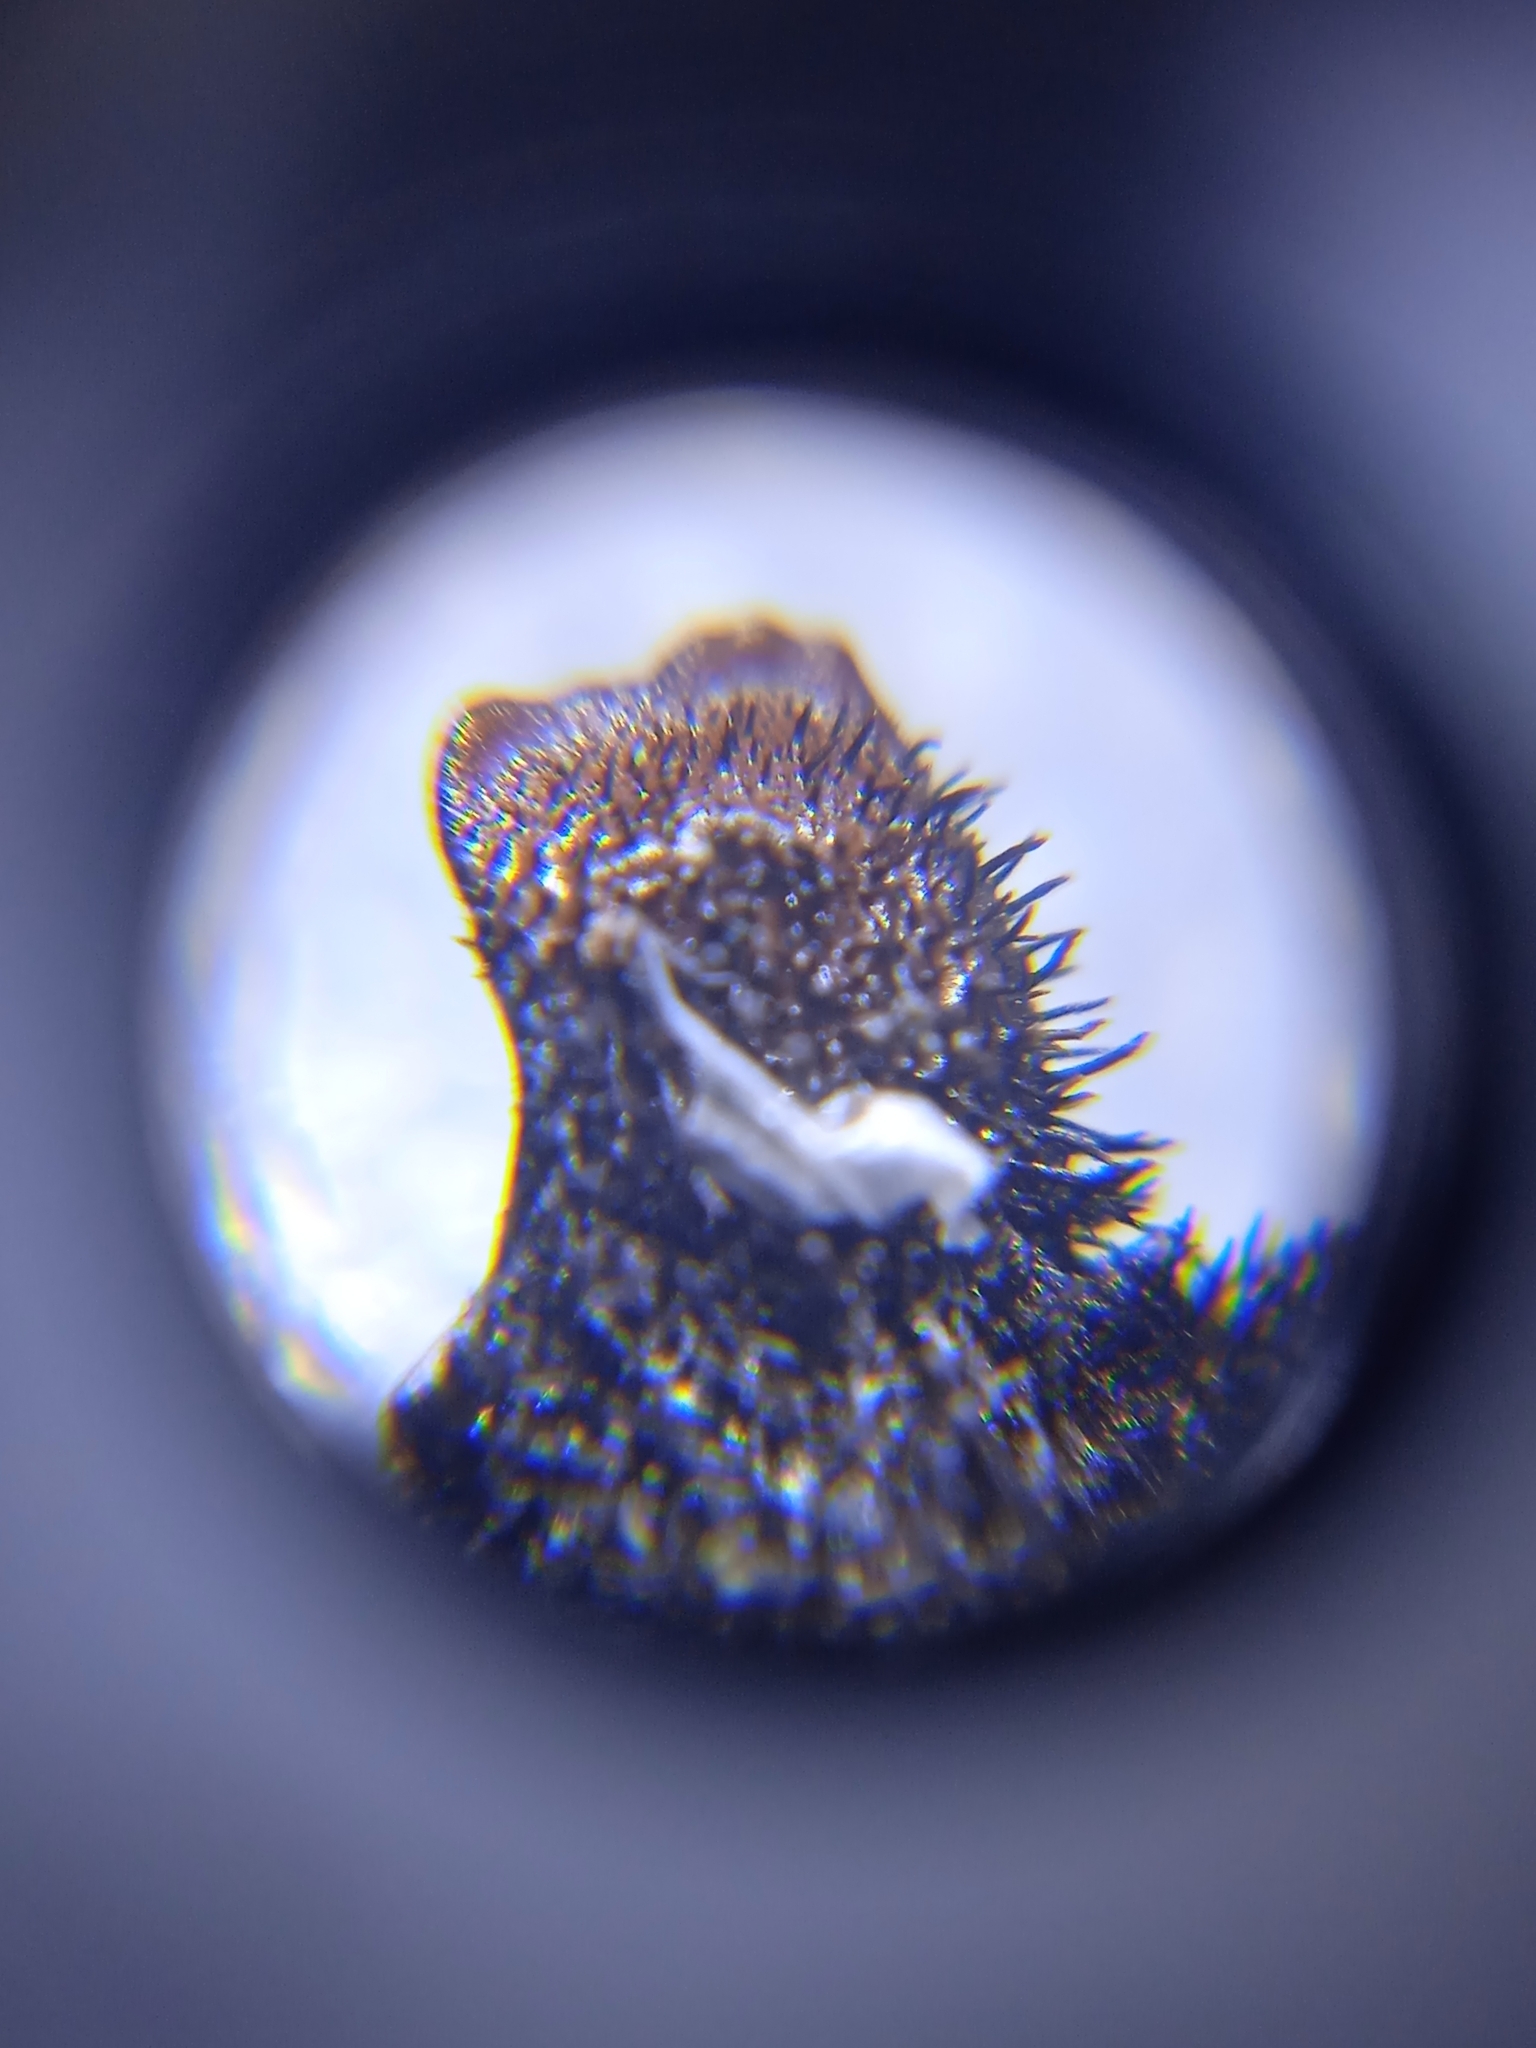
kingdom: Fungi
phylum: Ascomycota
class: Lecanoromycetes
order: Lecanorales
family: Parmeliaceae
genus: Parmelia
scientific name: Parmelia sulcata
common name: Netted shield lichen
